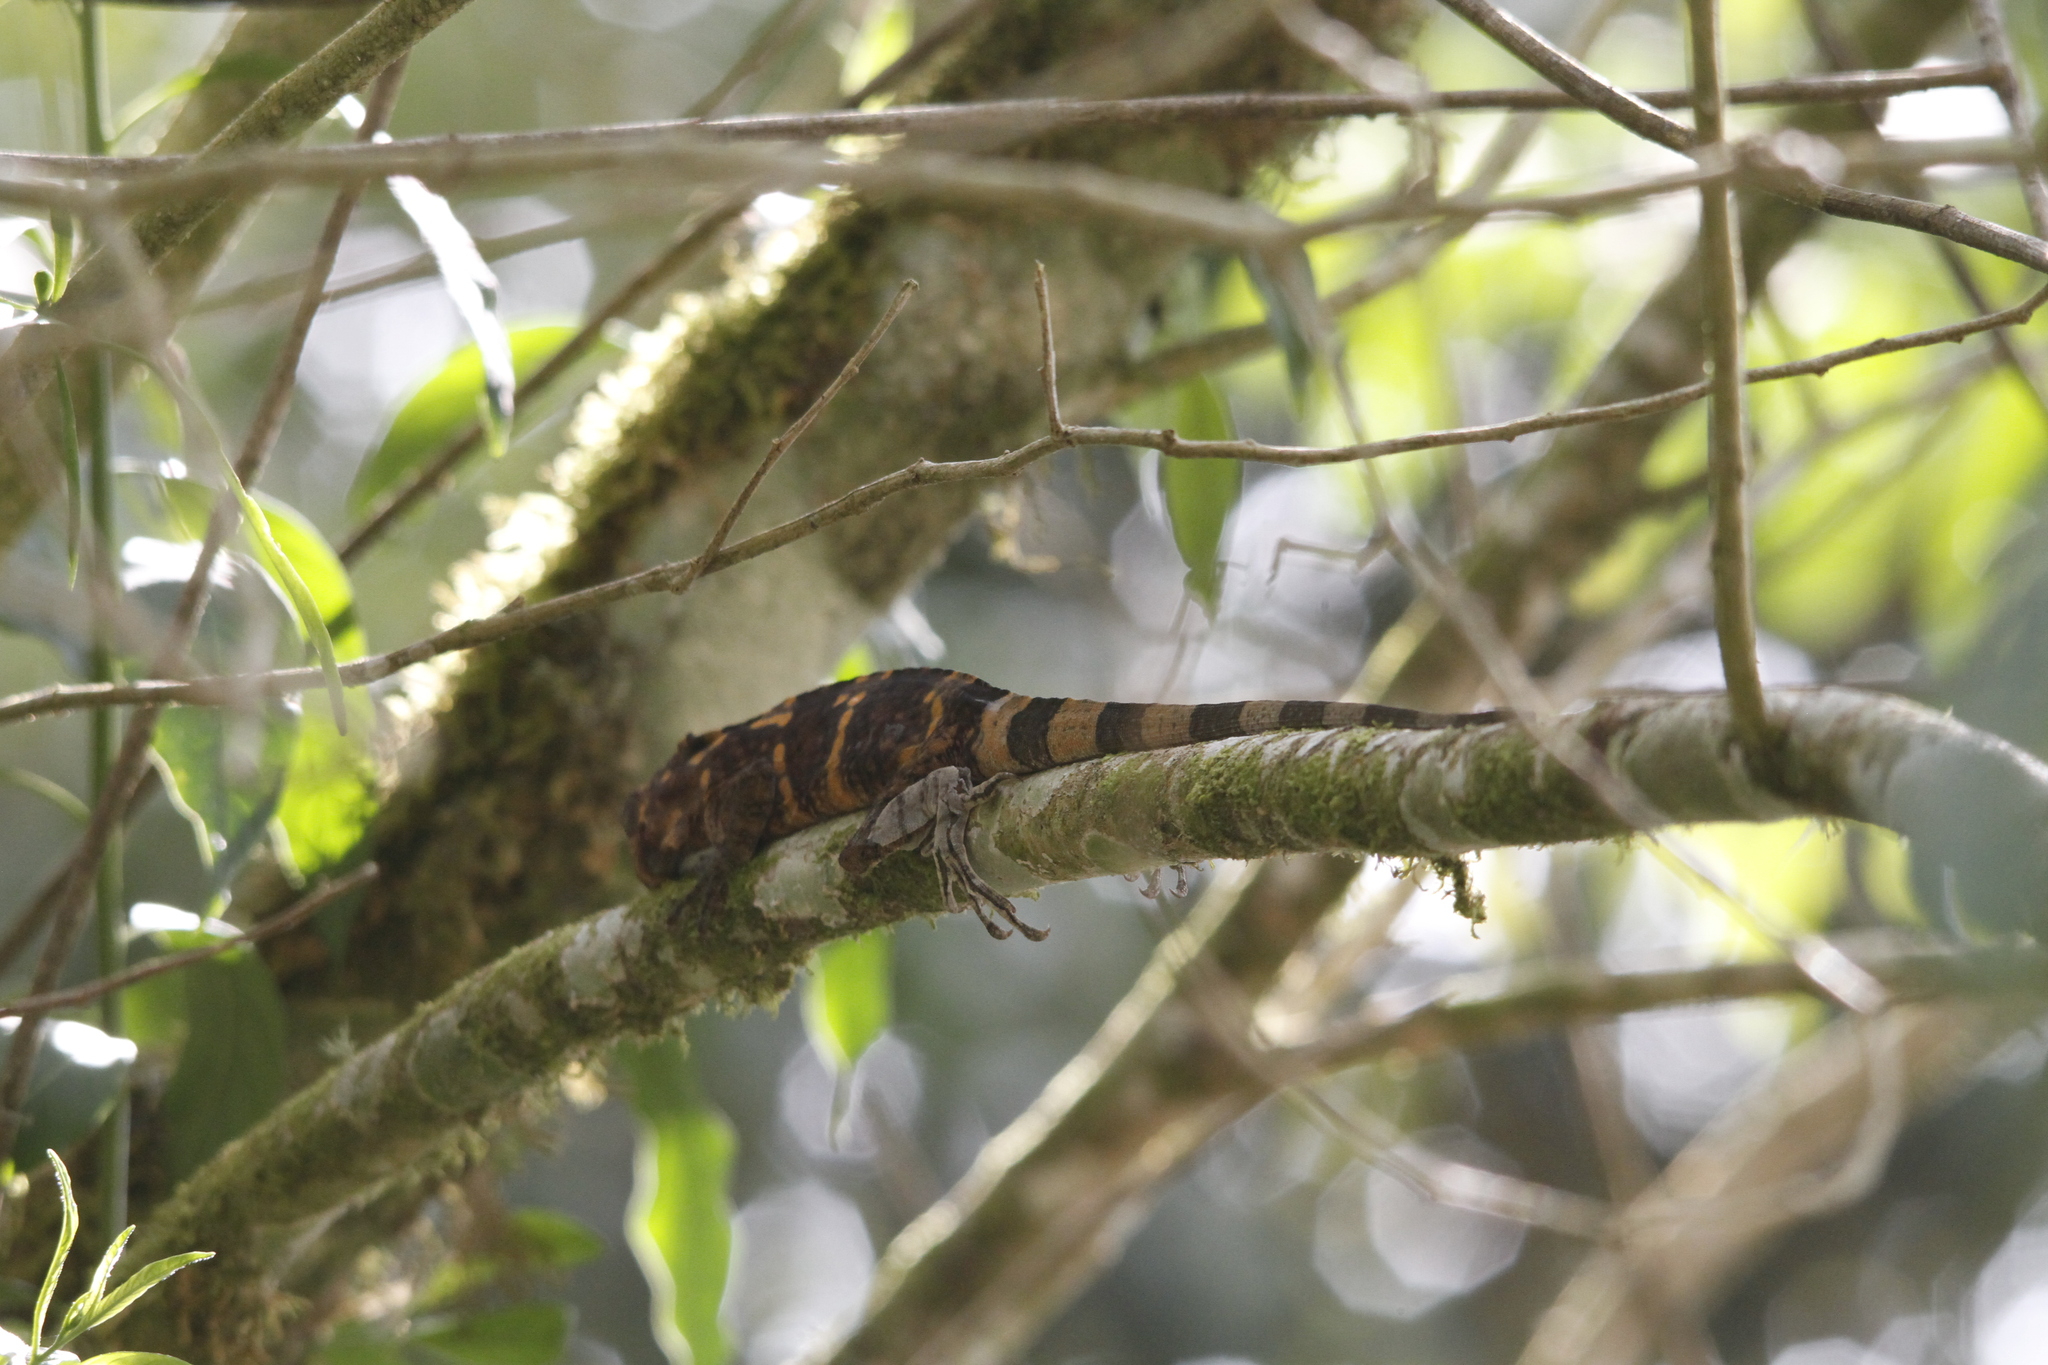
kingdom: Animalia
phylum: Chordata
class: Squamata
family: Dactyloidae
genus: Anolis
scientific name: Anolis savagei
